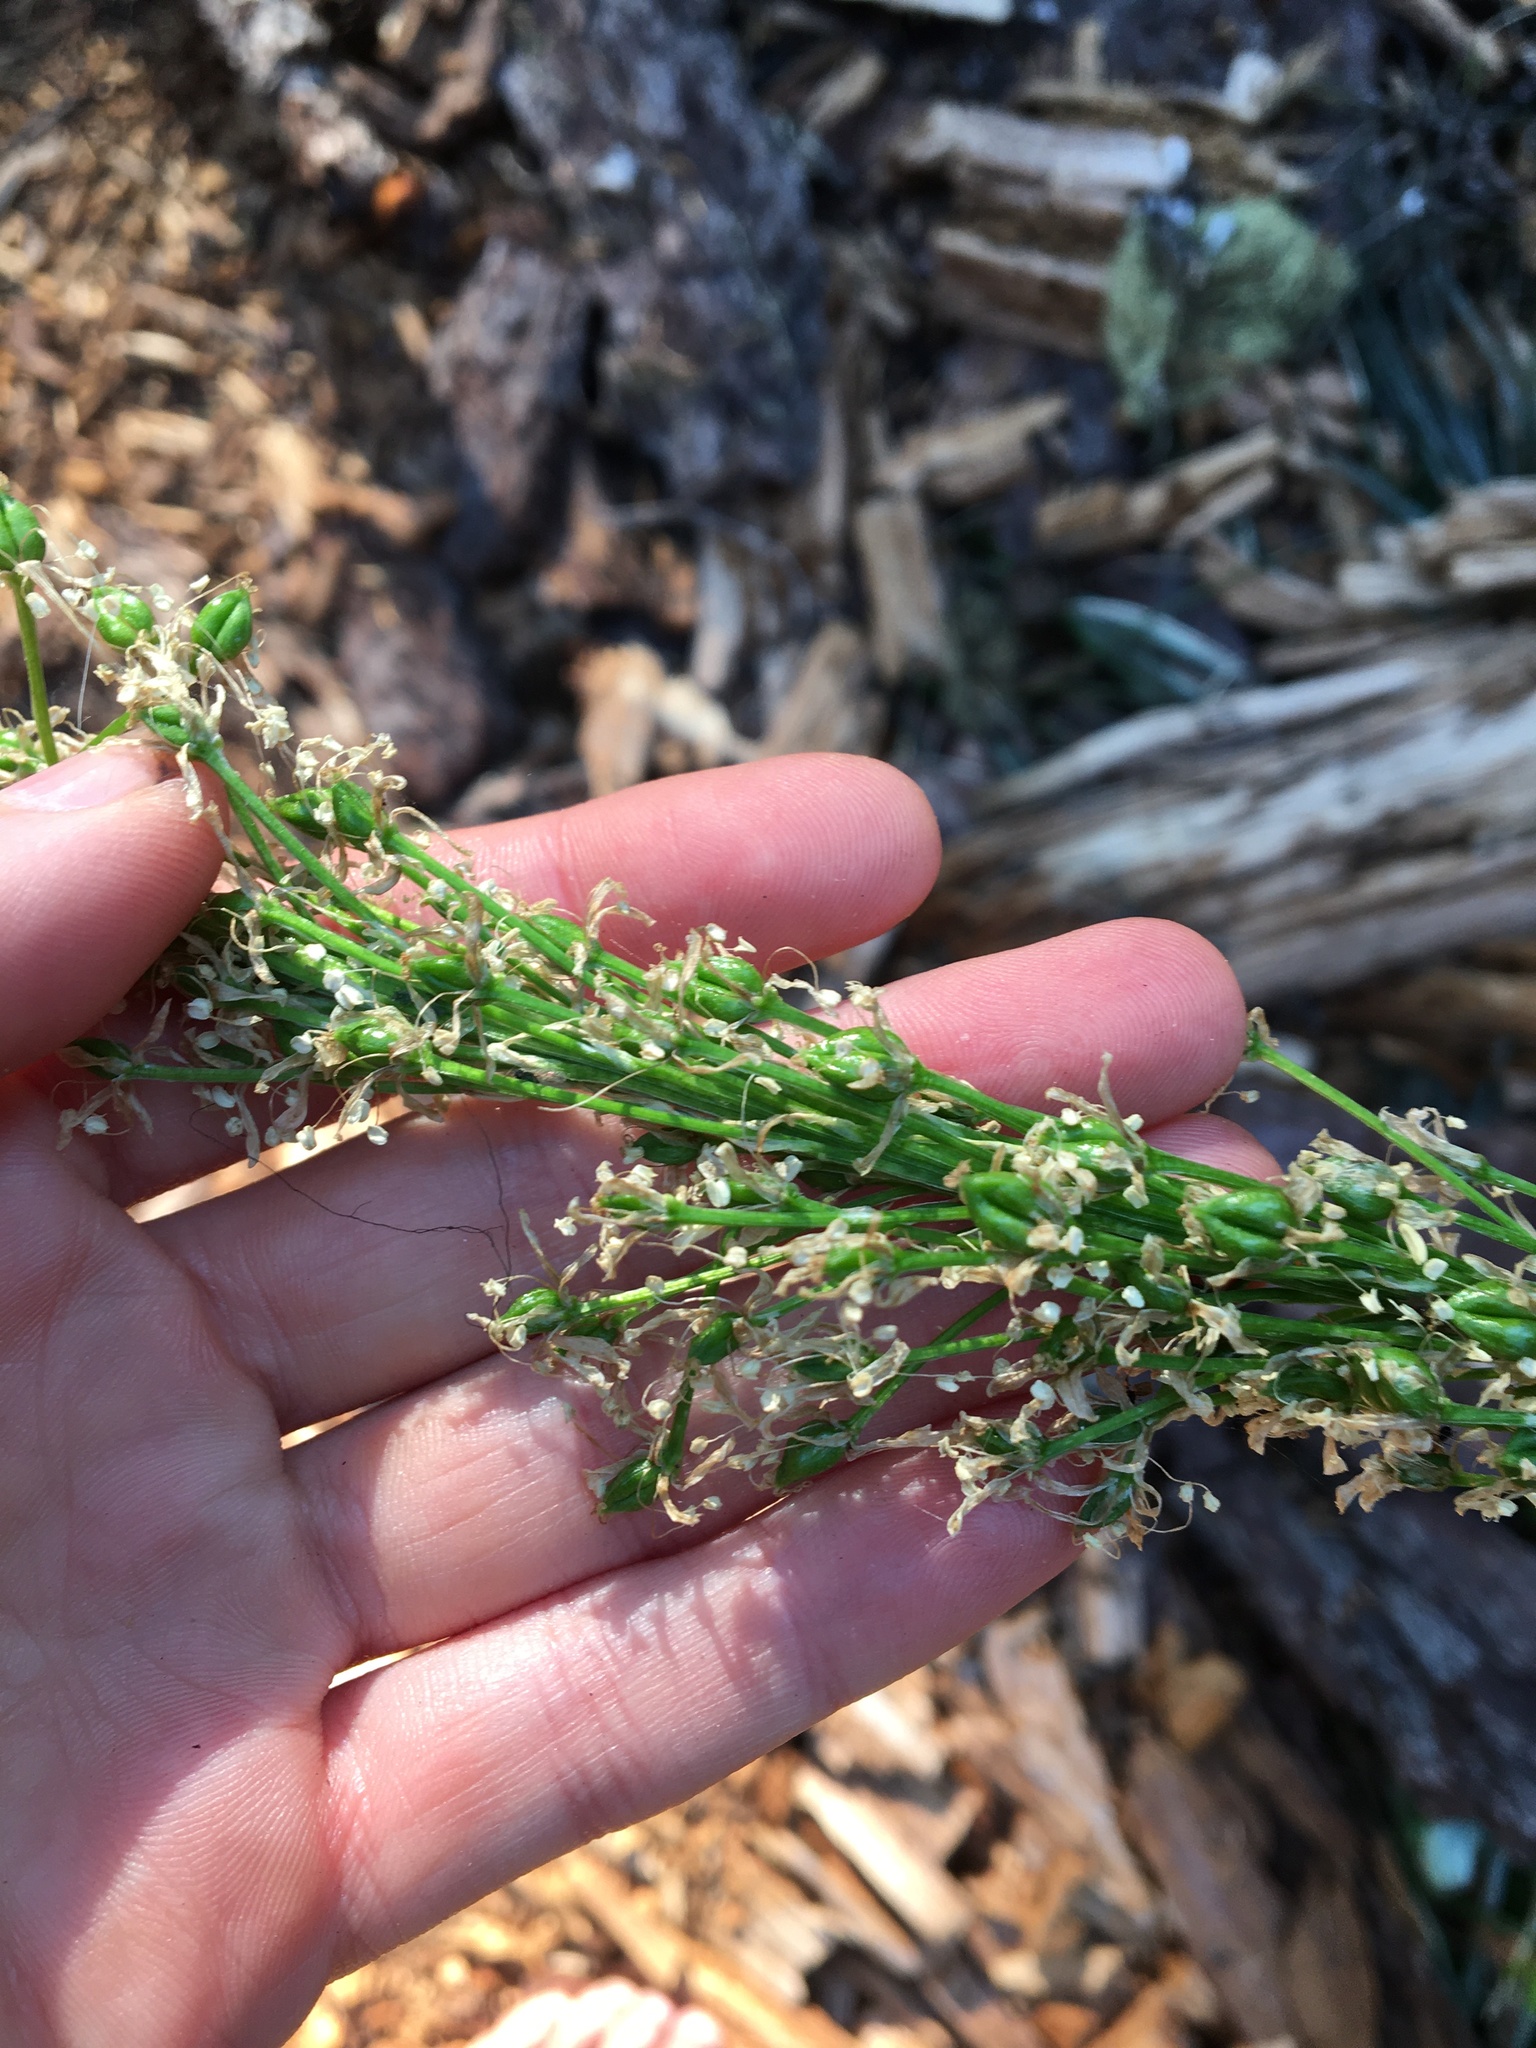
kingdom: Plantae
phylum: Tracheophyta
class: Liliopsida
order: Liliales
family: Melanthiaceae
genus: Xerophyllum
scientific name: Xerophyllum tenax
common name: Bear-grass
